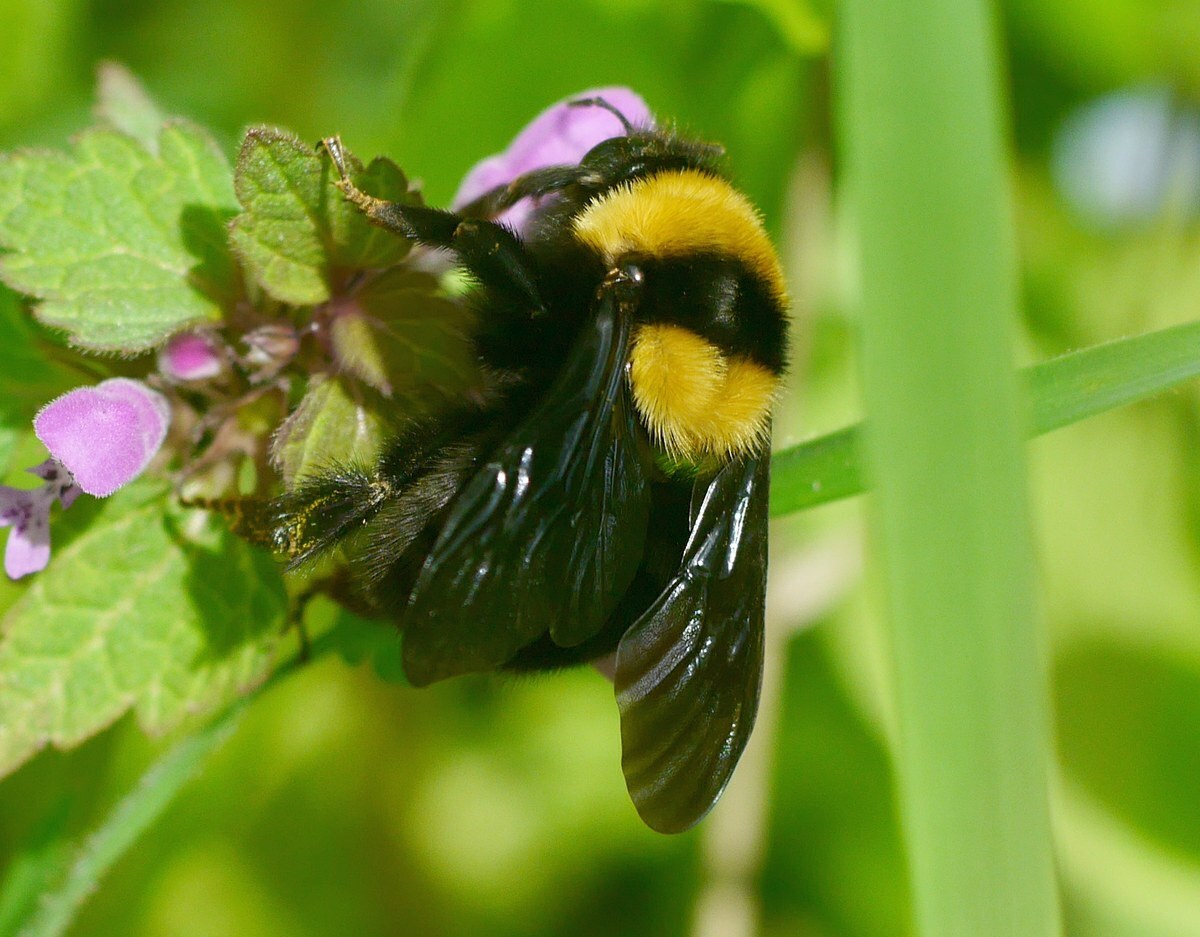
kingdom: Animalia
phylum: Arthropoda
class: Insecta
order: Hymenoptera
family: Apidae
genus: Bombus
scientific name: Bombus argillaceus
